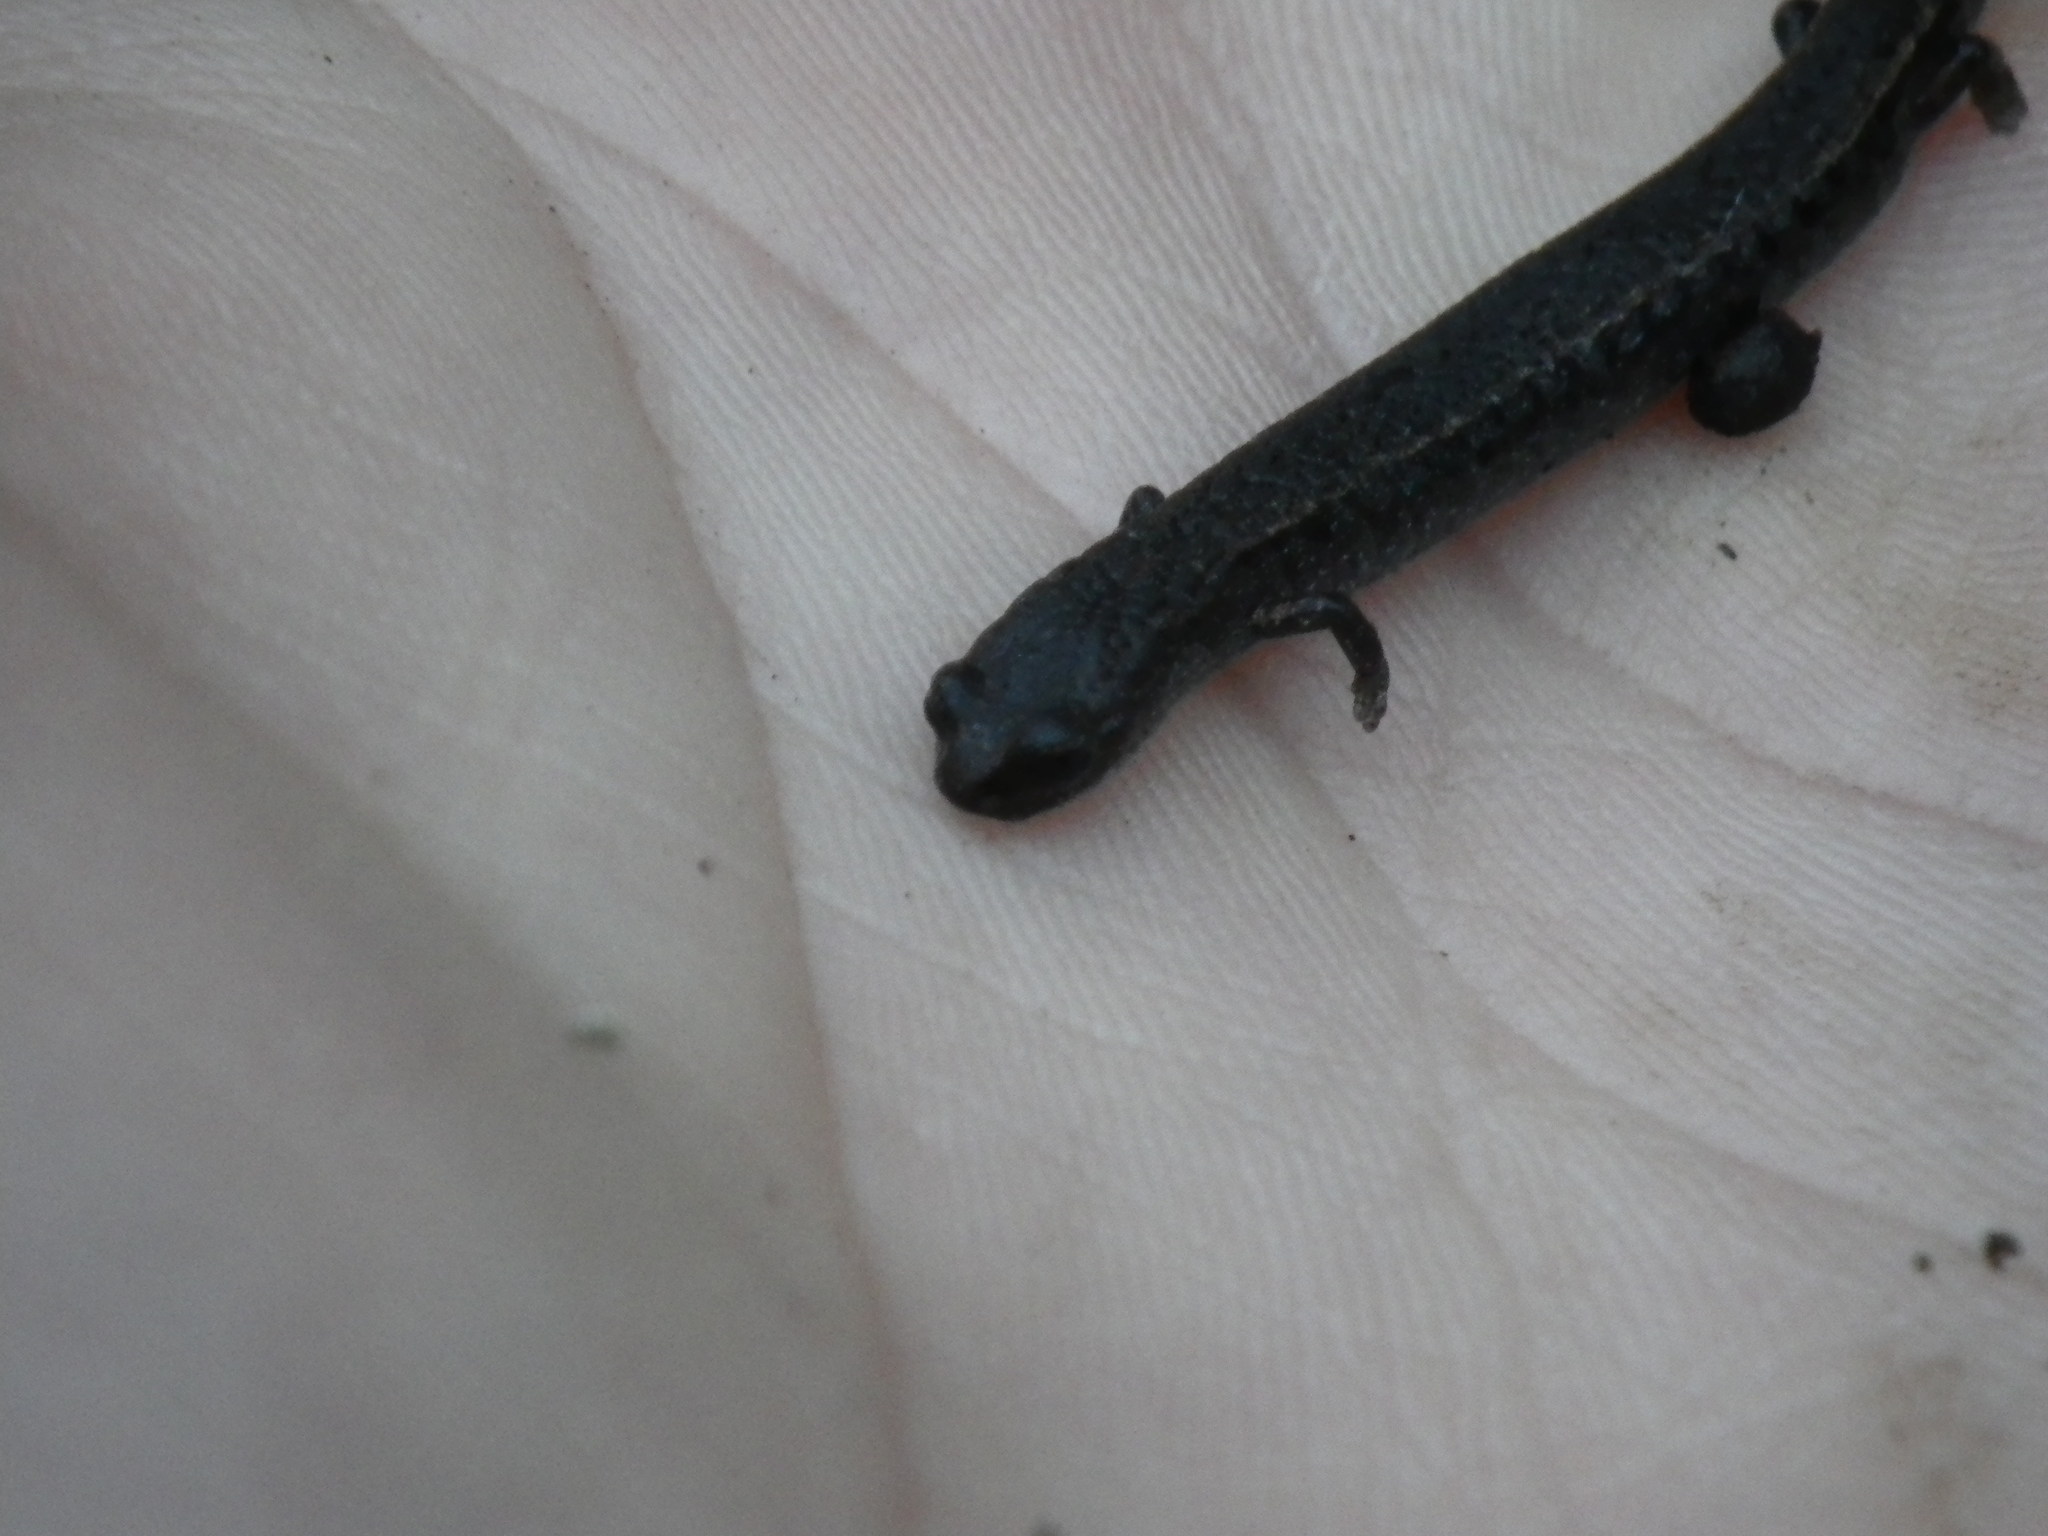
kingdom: Animalia
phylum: Chordata
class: Amphibia
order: Caudata
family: Plethodontidae
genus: Batrachoseps
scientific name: Batrachoseps attenuatus
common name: California slender salamander
